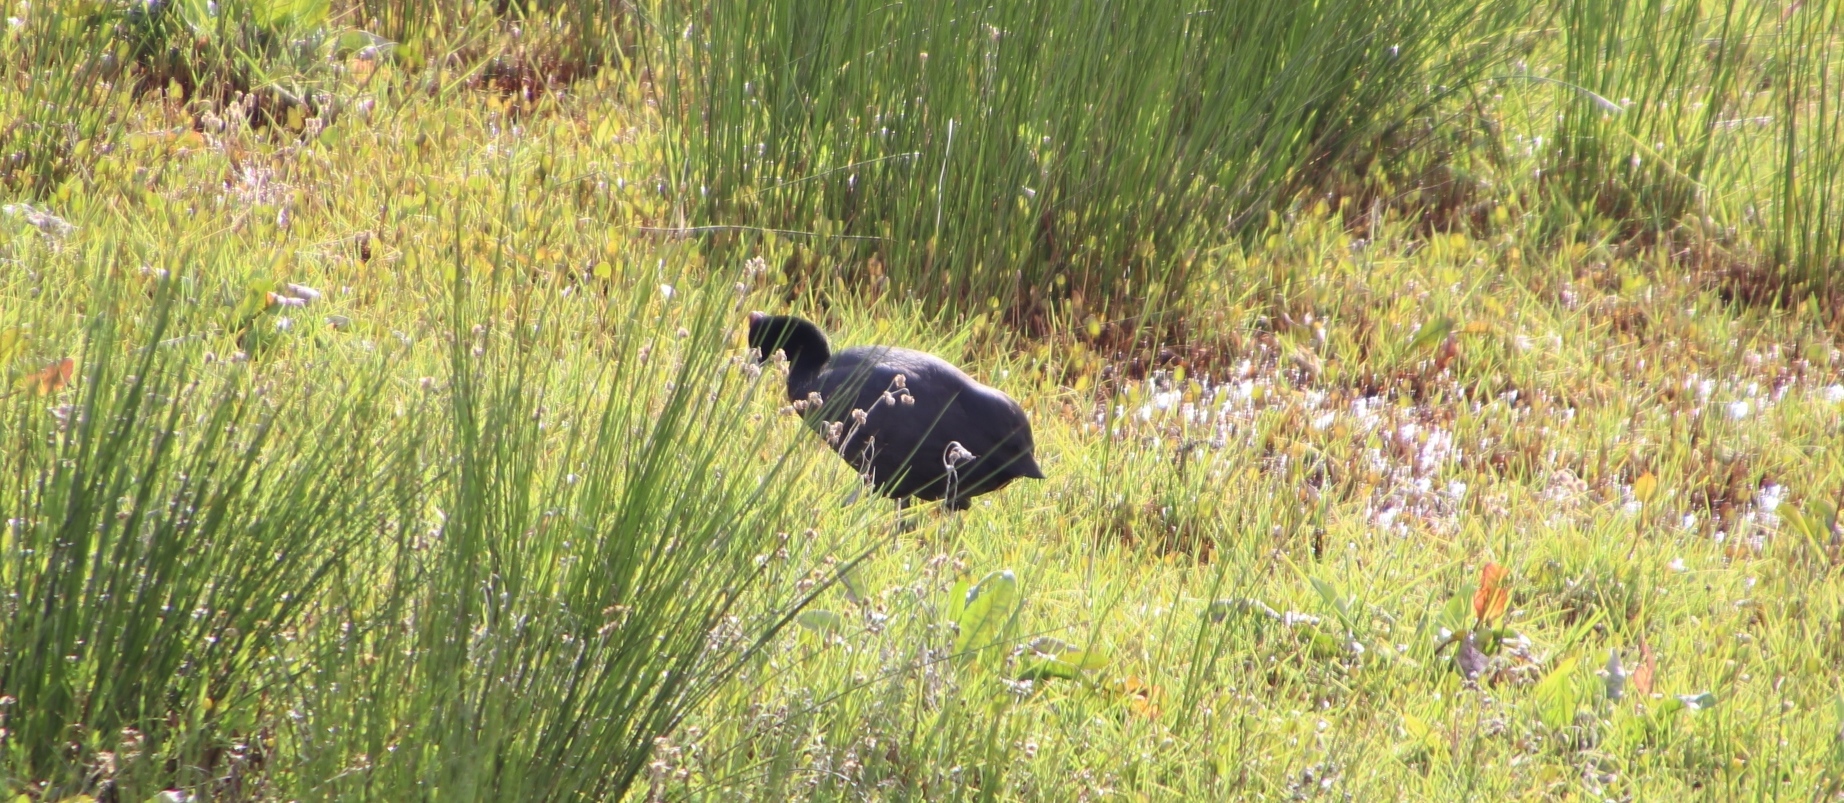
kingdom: Animalia
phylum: Chordata
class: Aves
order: Gruiformes
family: Rallidae
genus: Fulica
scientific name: Fulica cristata
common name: Red-knobbed coot
